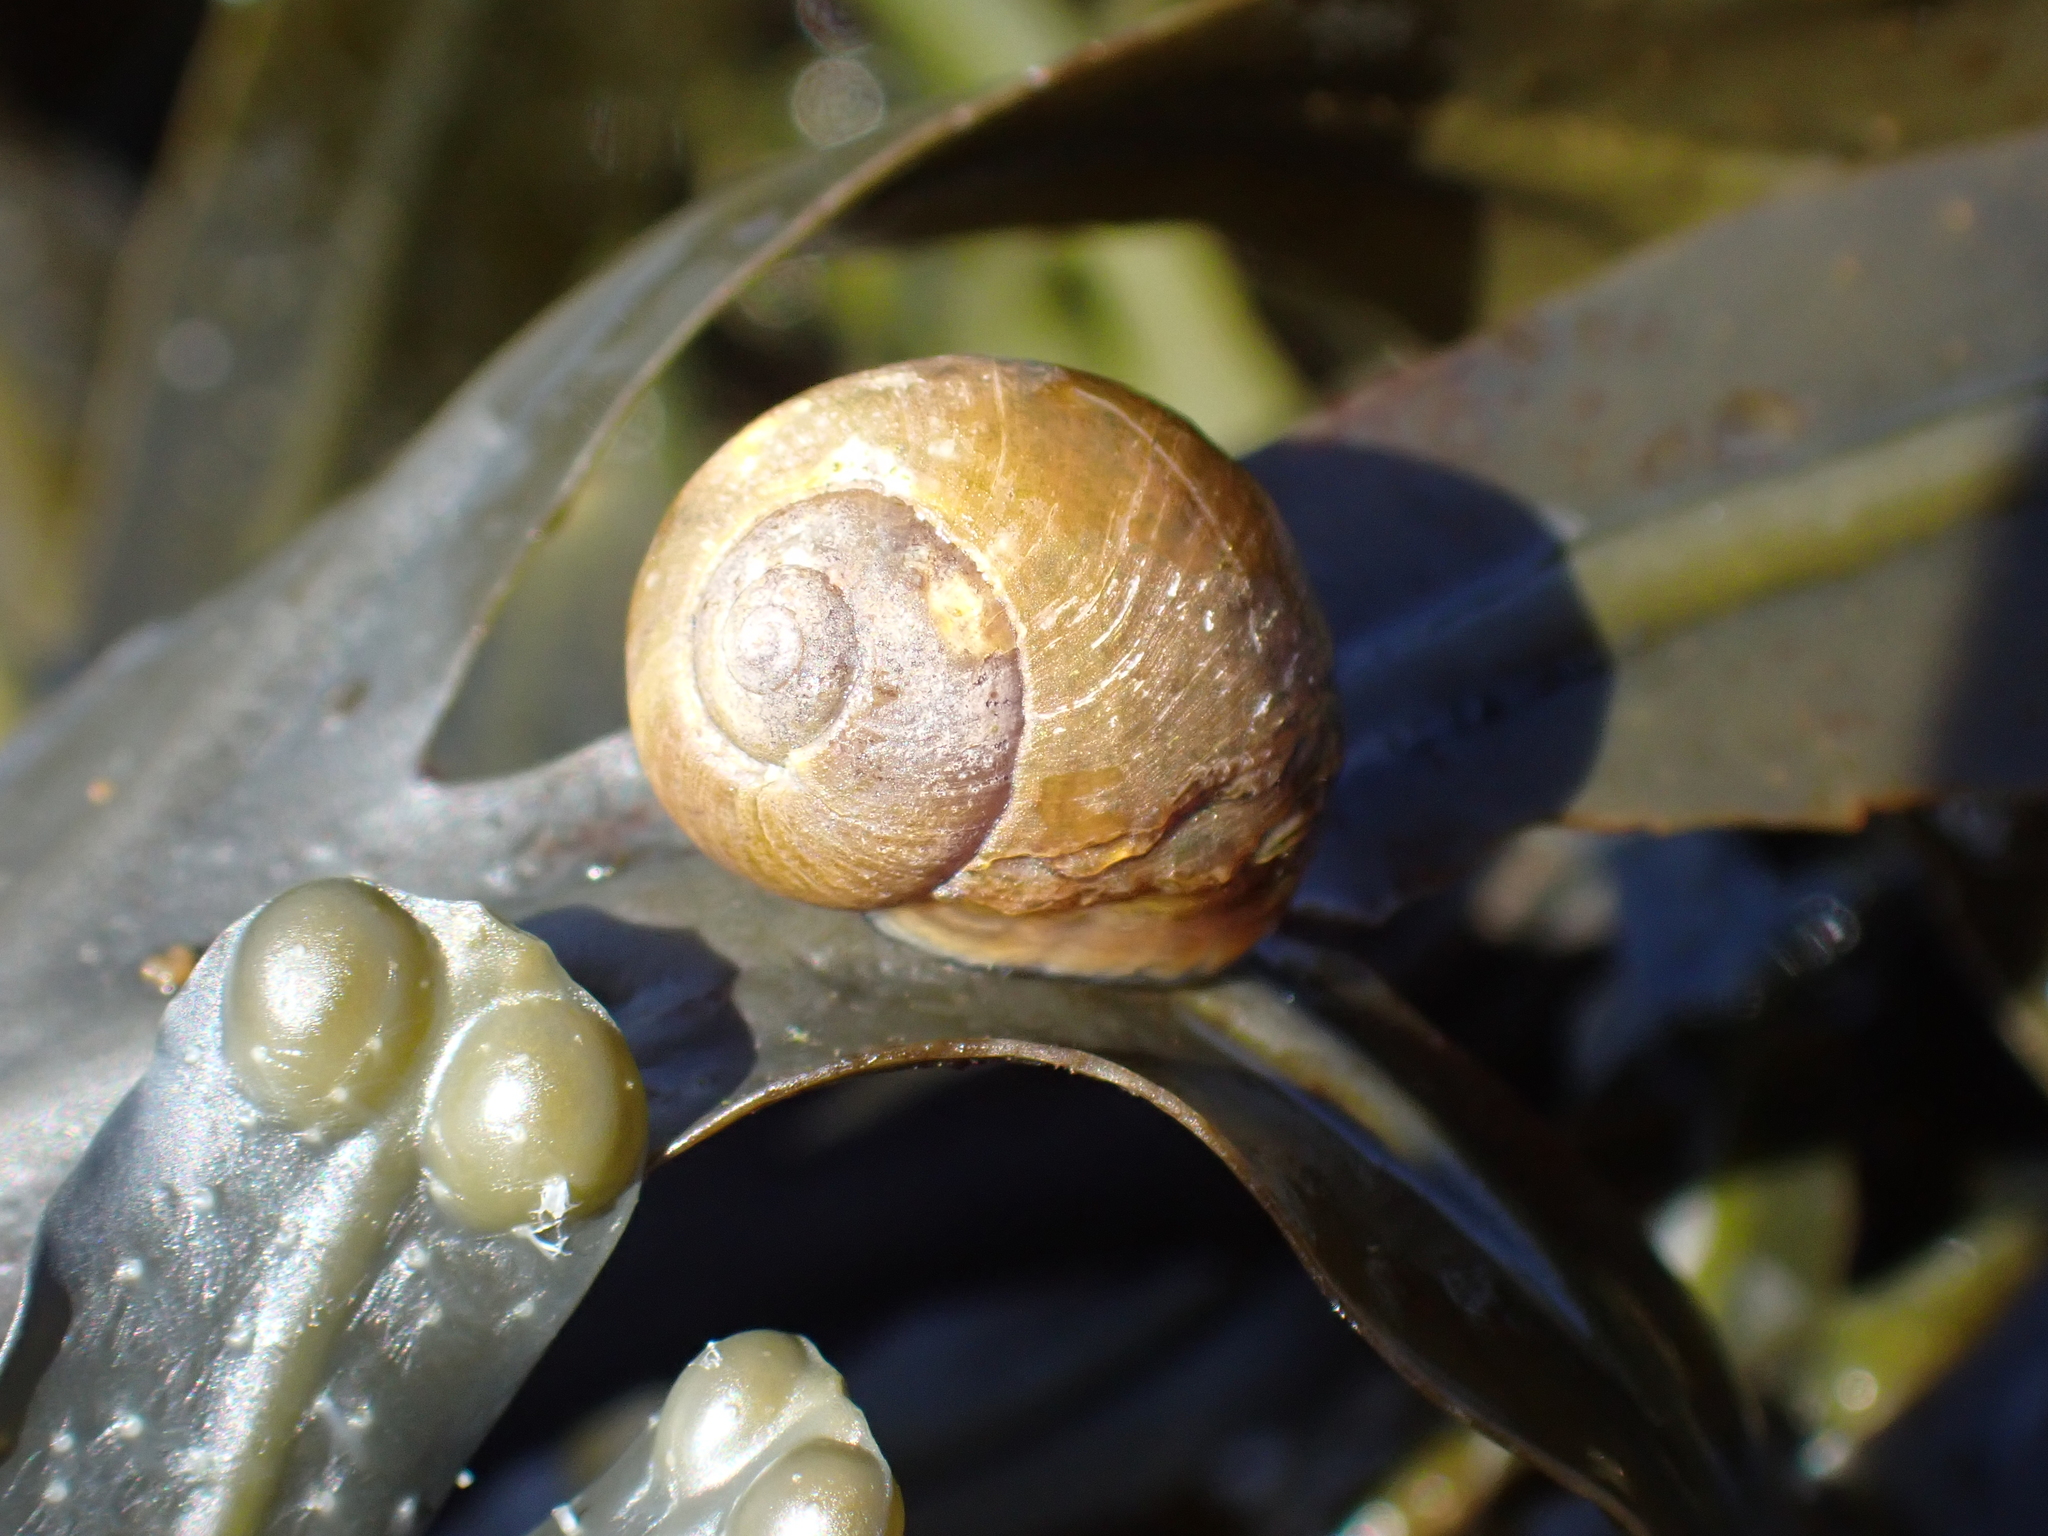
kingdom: Animalia
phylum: Mollusca
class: Gastropoda
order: Littorinimorpha
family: Littorinidae
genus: Littorina
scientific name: Littorina obtusata
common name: Flat periwinkle
